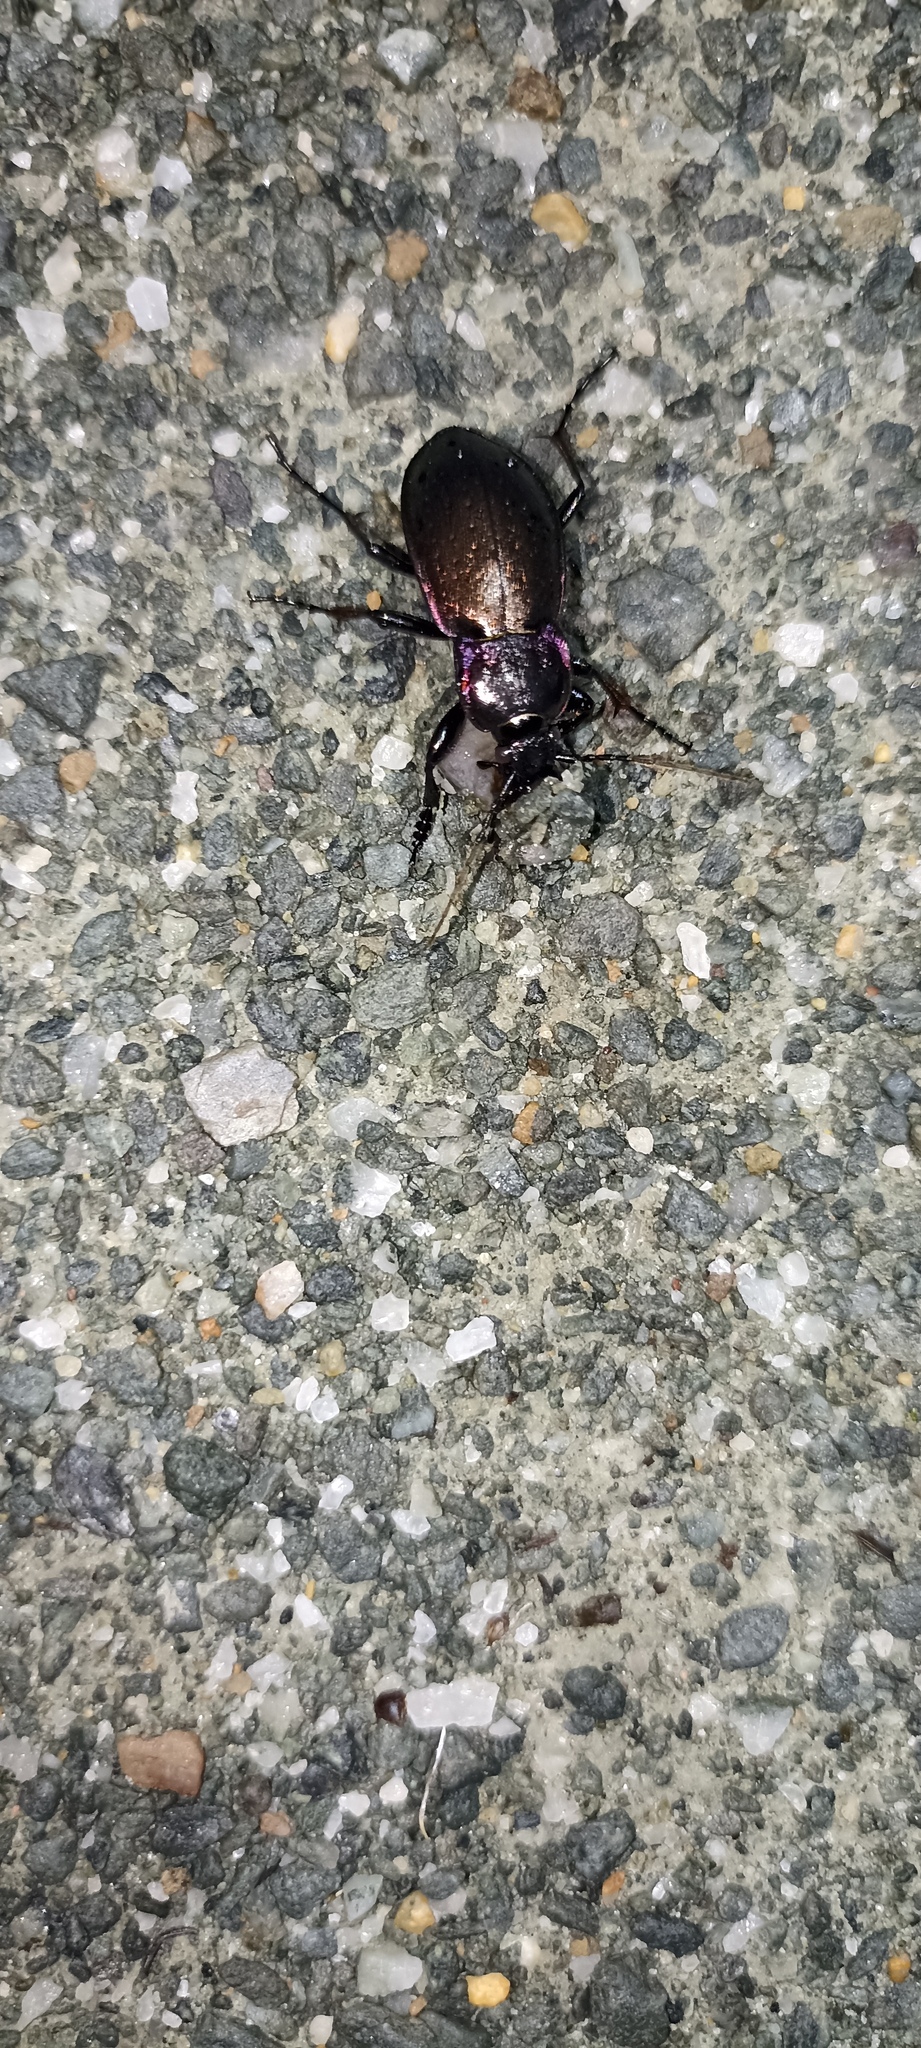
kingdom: Animalia
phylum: Arthropoda
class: Insecta
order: Coleoptera
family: Carabidae
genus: Carabus
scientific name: Carabus nemoralis
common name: European ground beetle
